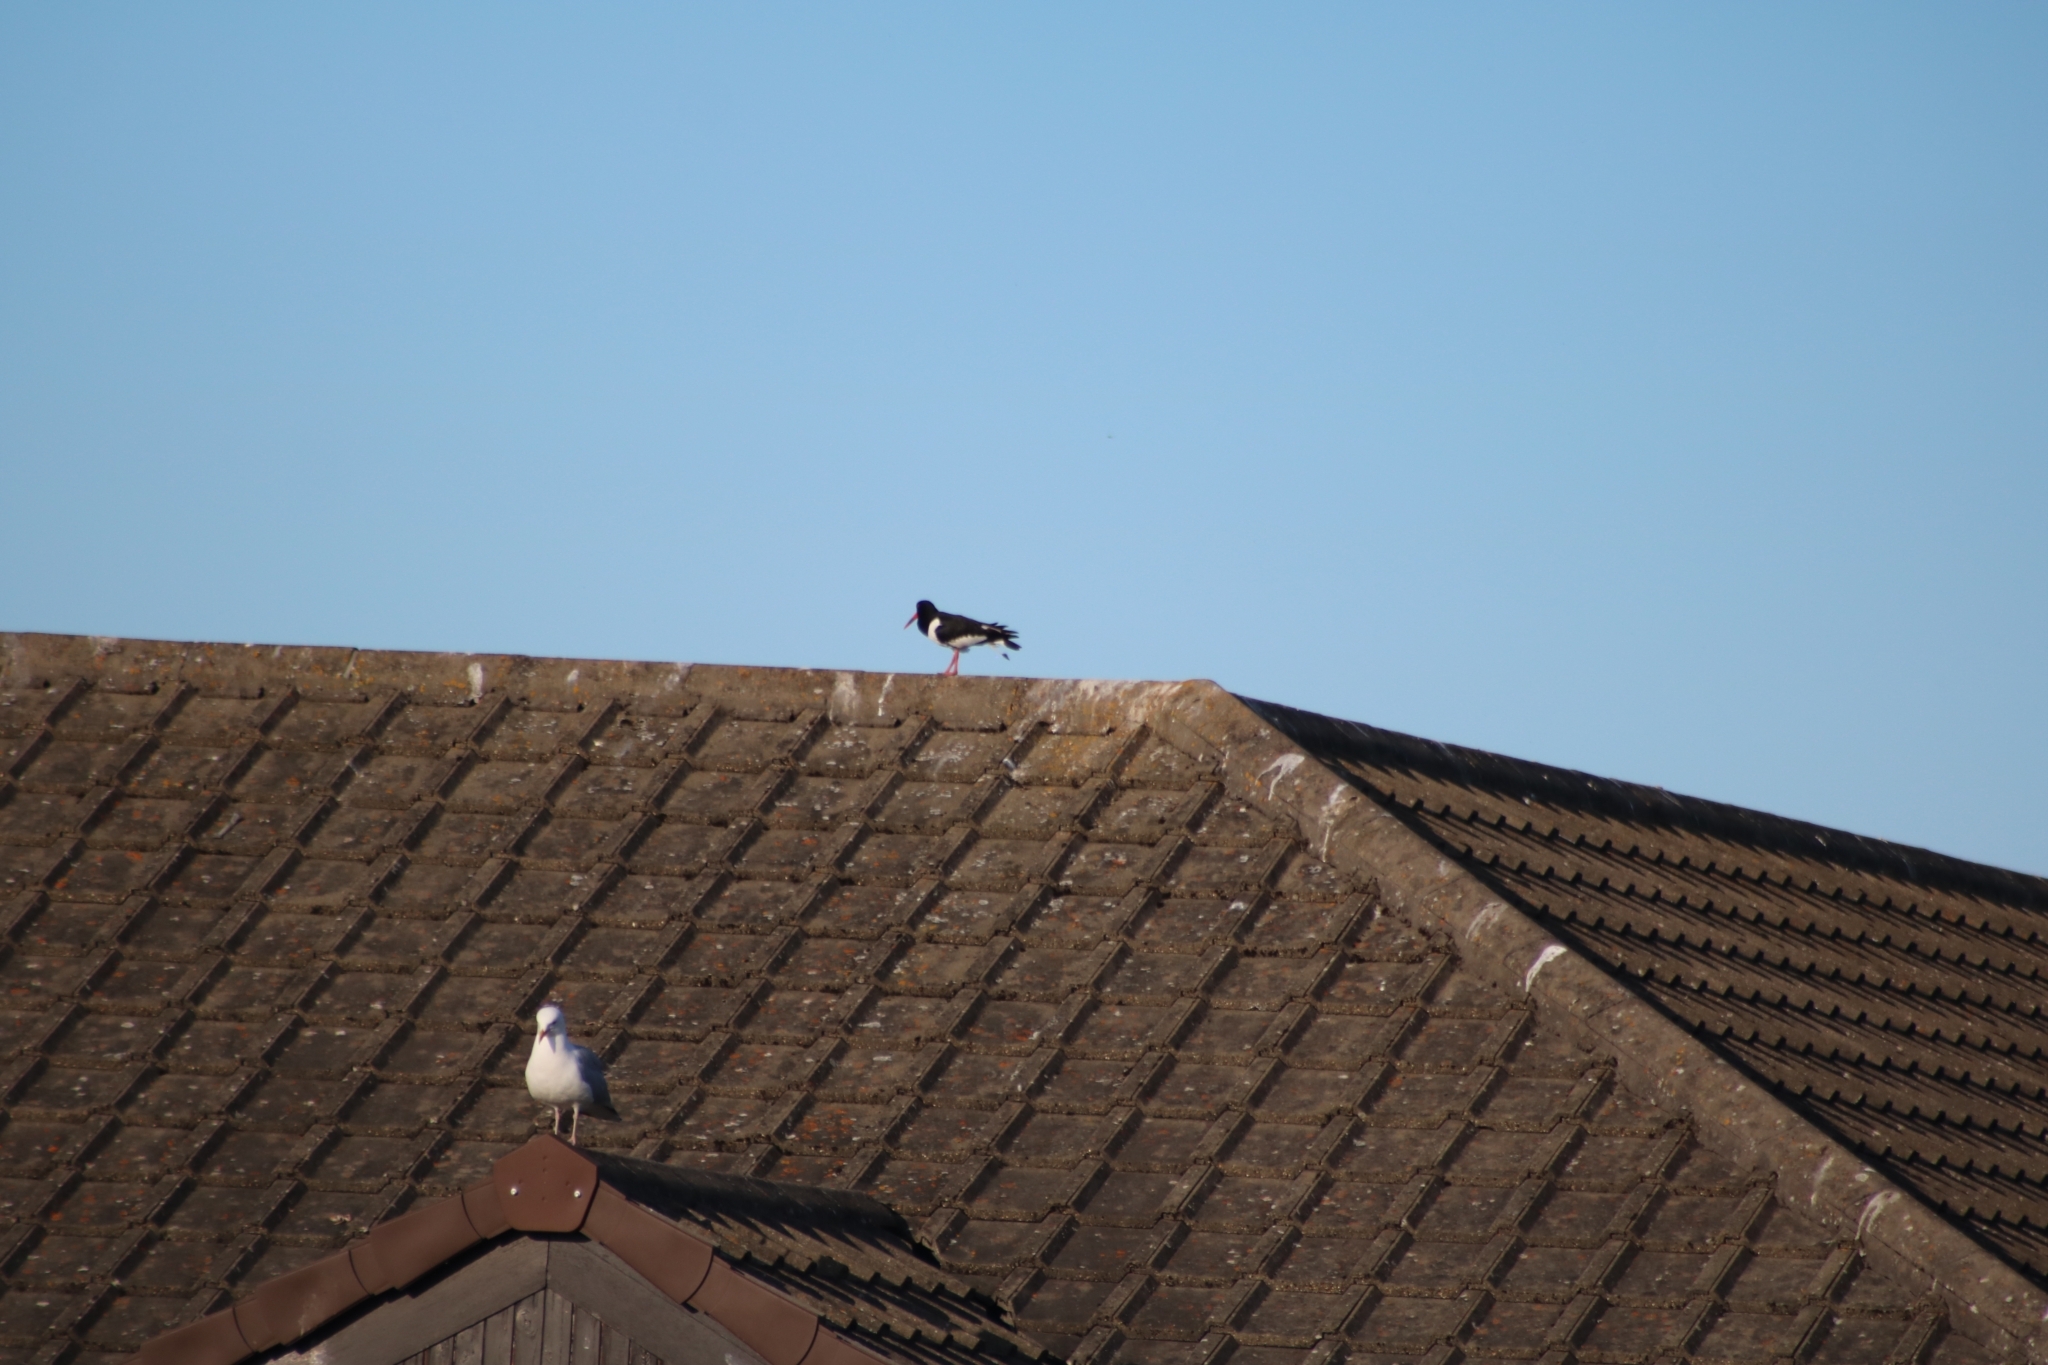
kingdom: Animalia
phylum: Chordata
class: Aves
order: Charadriiformes
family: Haematopodidae
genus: Haematopus
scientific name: Haematopus ostralegus
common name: Eurasian oystercatcher
